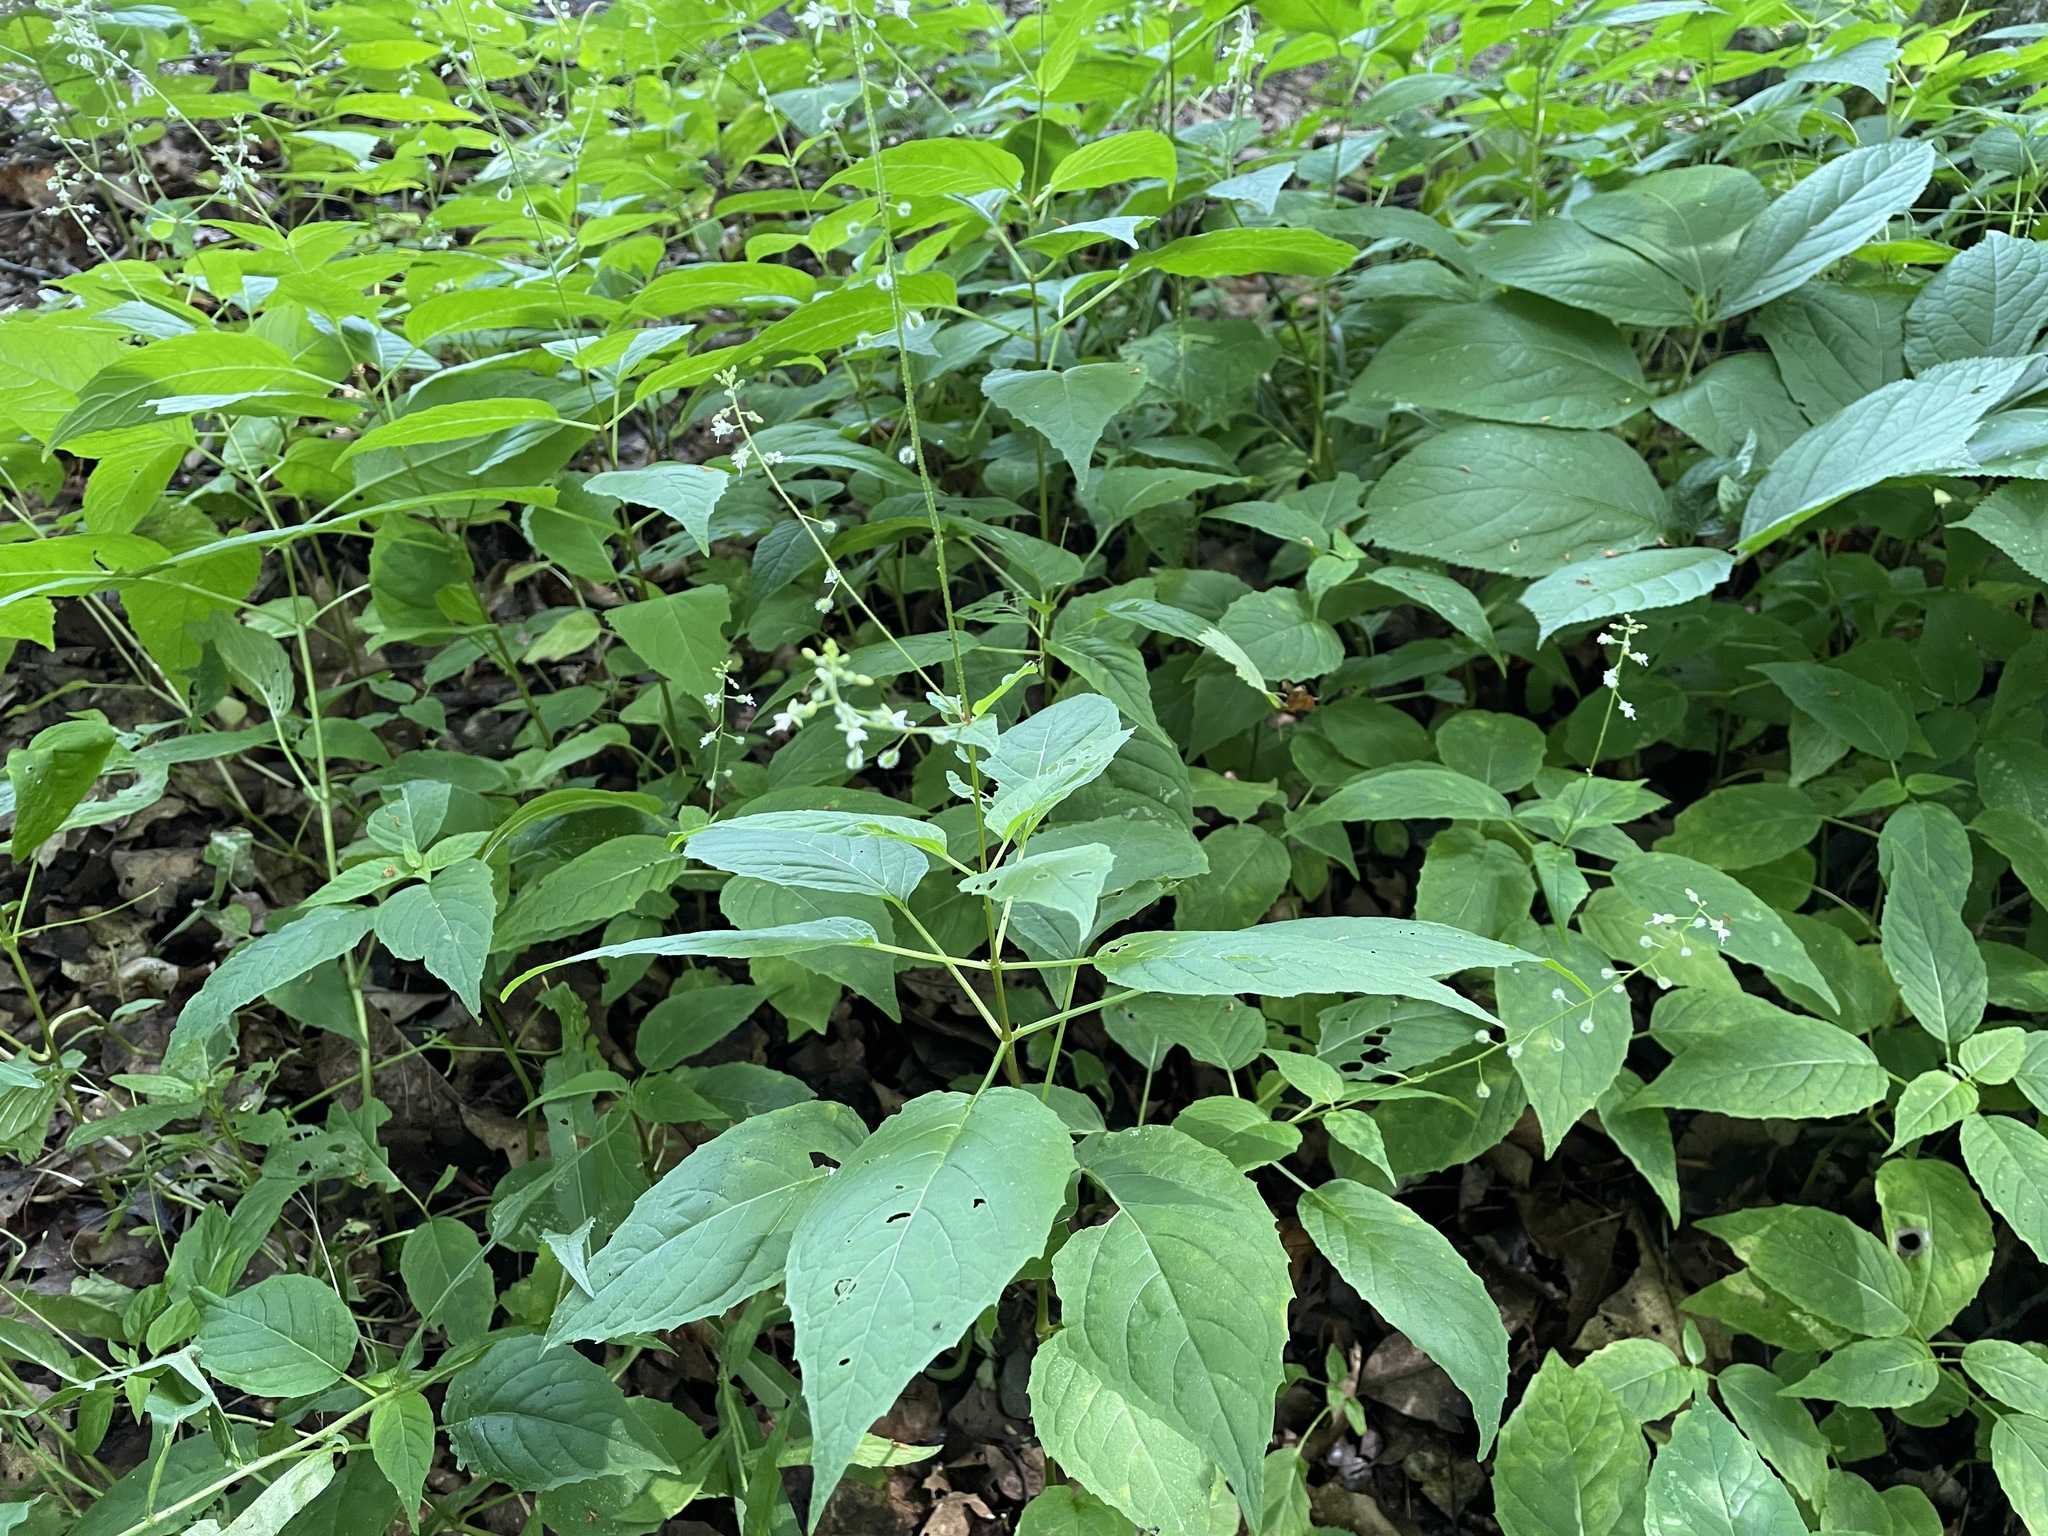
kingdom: Plantae
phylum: Tracheophyta
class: Magnoliopsida
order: Myrtales
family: Onagraceae
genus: Circaea
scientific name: Circaea canadensis
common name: Broad-leaved enchanter's nightshade
